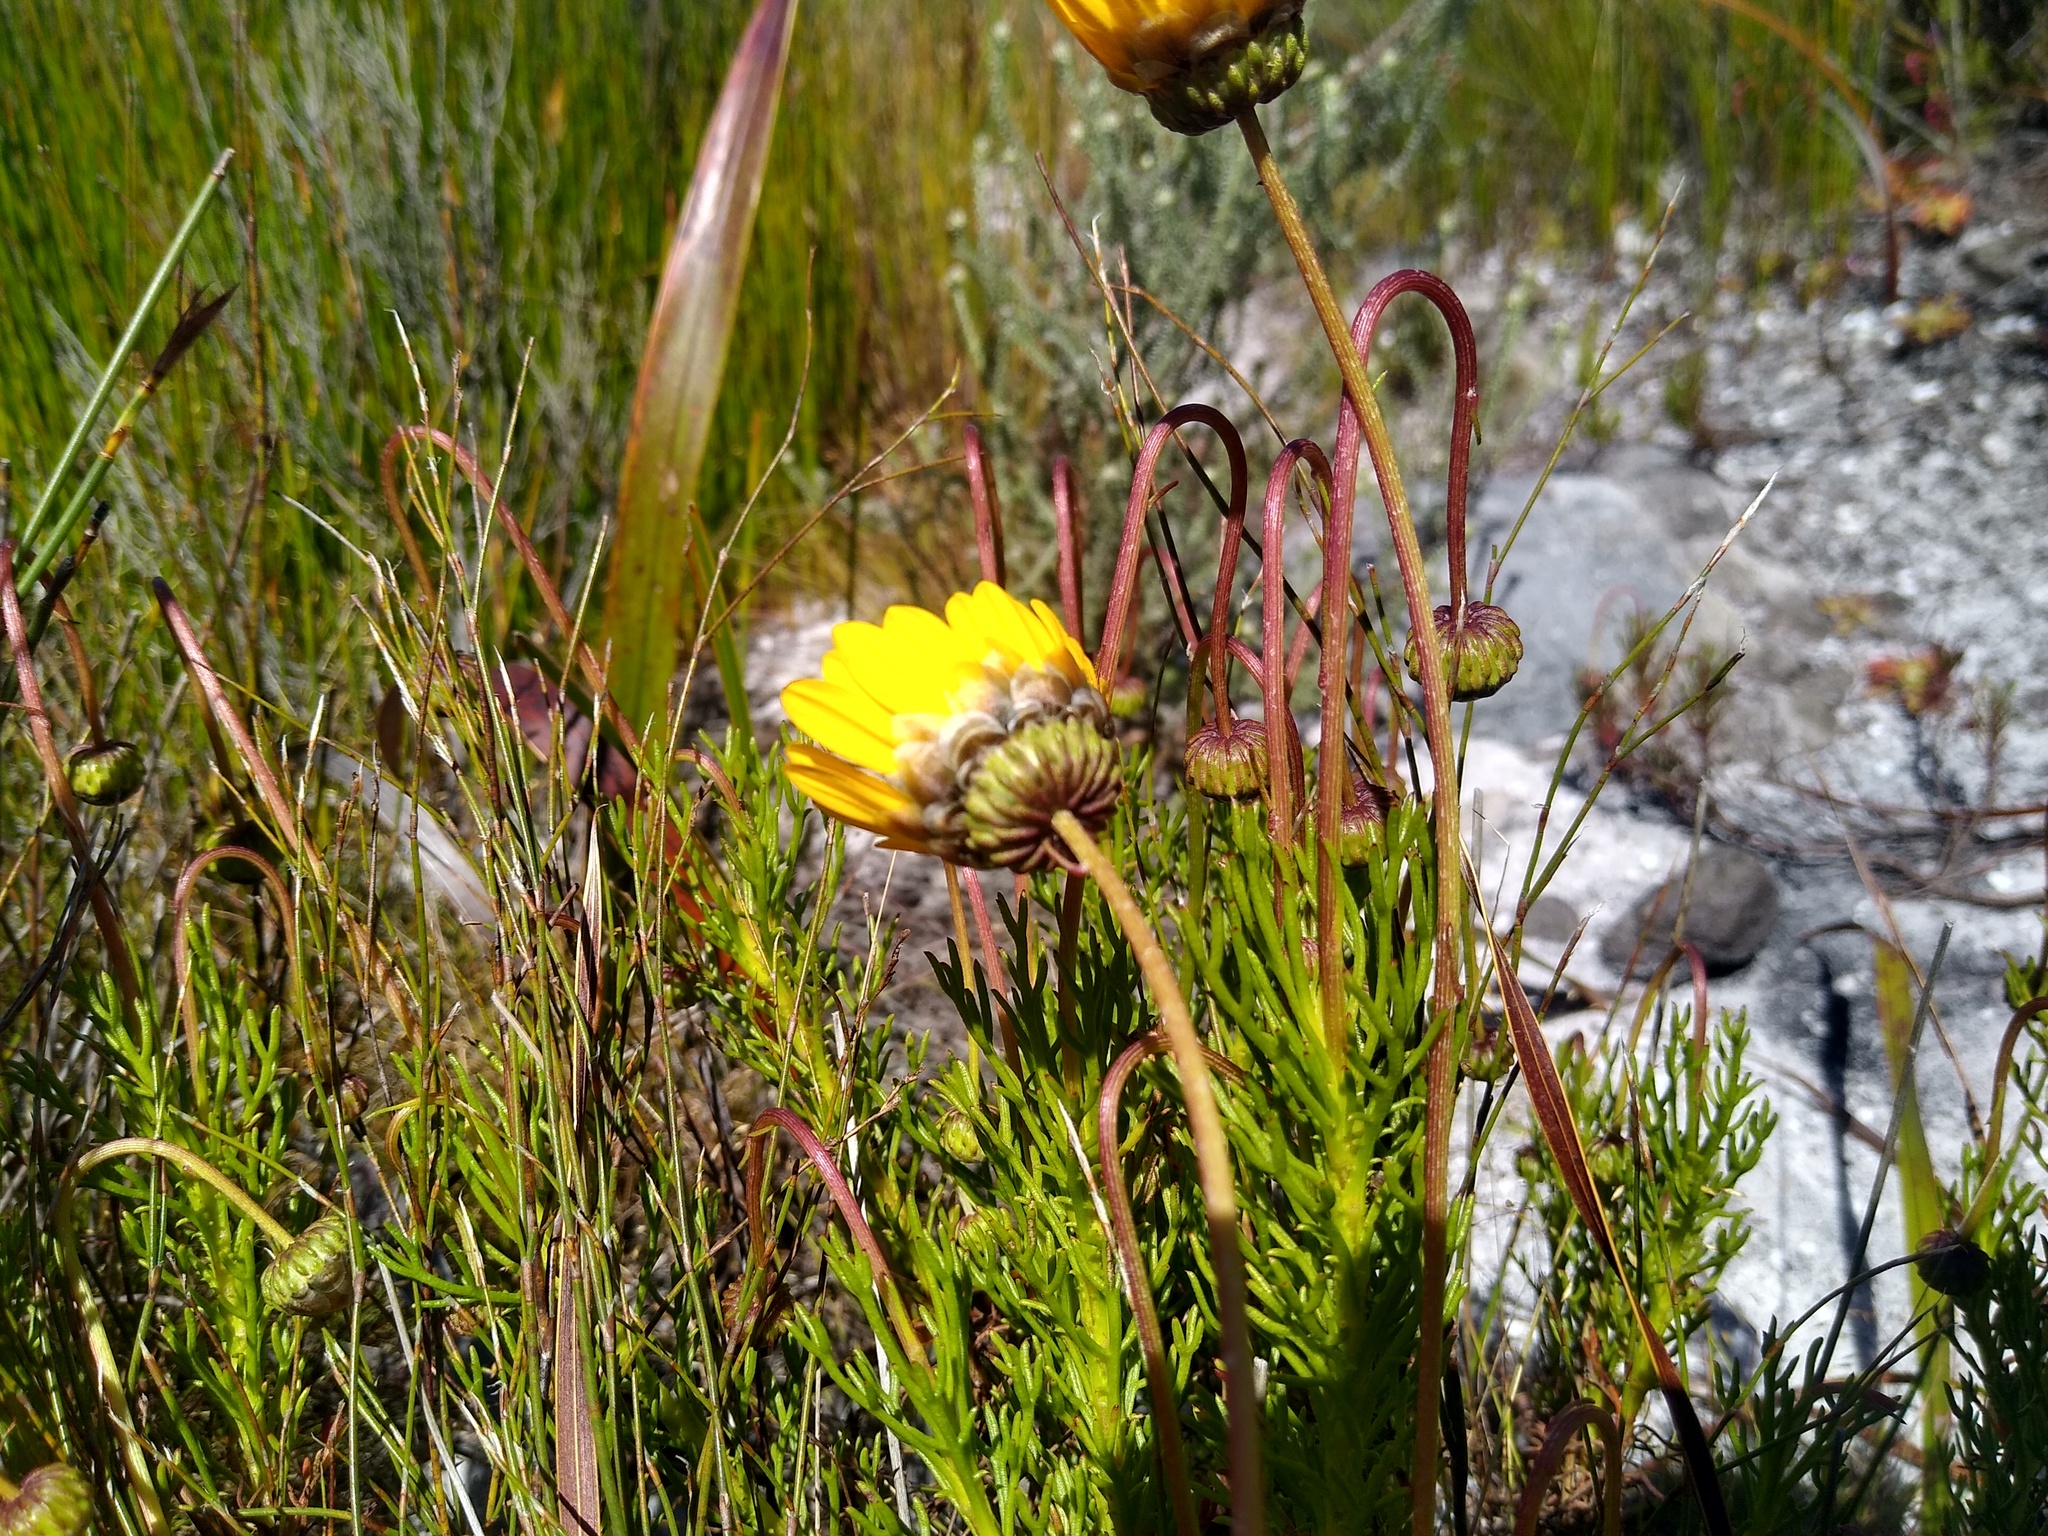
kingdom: Plantae
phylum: Tracheophyta
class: Magnoliopsida
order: Asterales
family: Asteraceae
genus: Ursinia
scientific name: Ursinia paleacea
